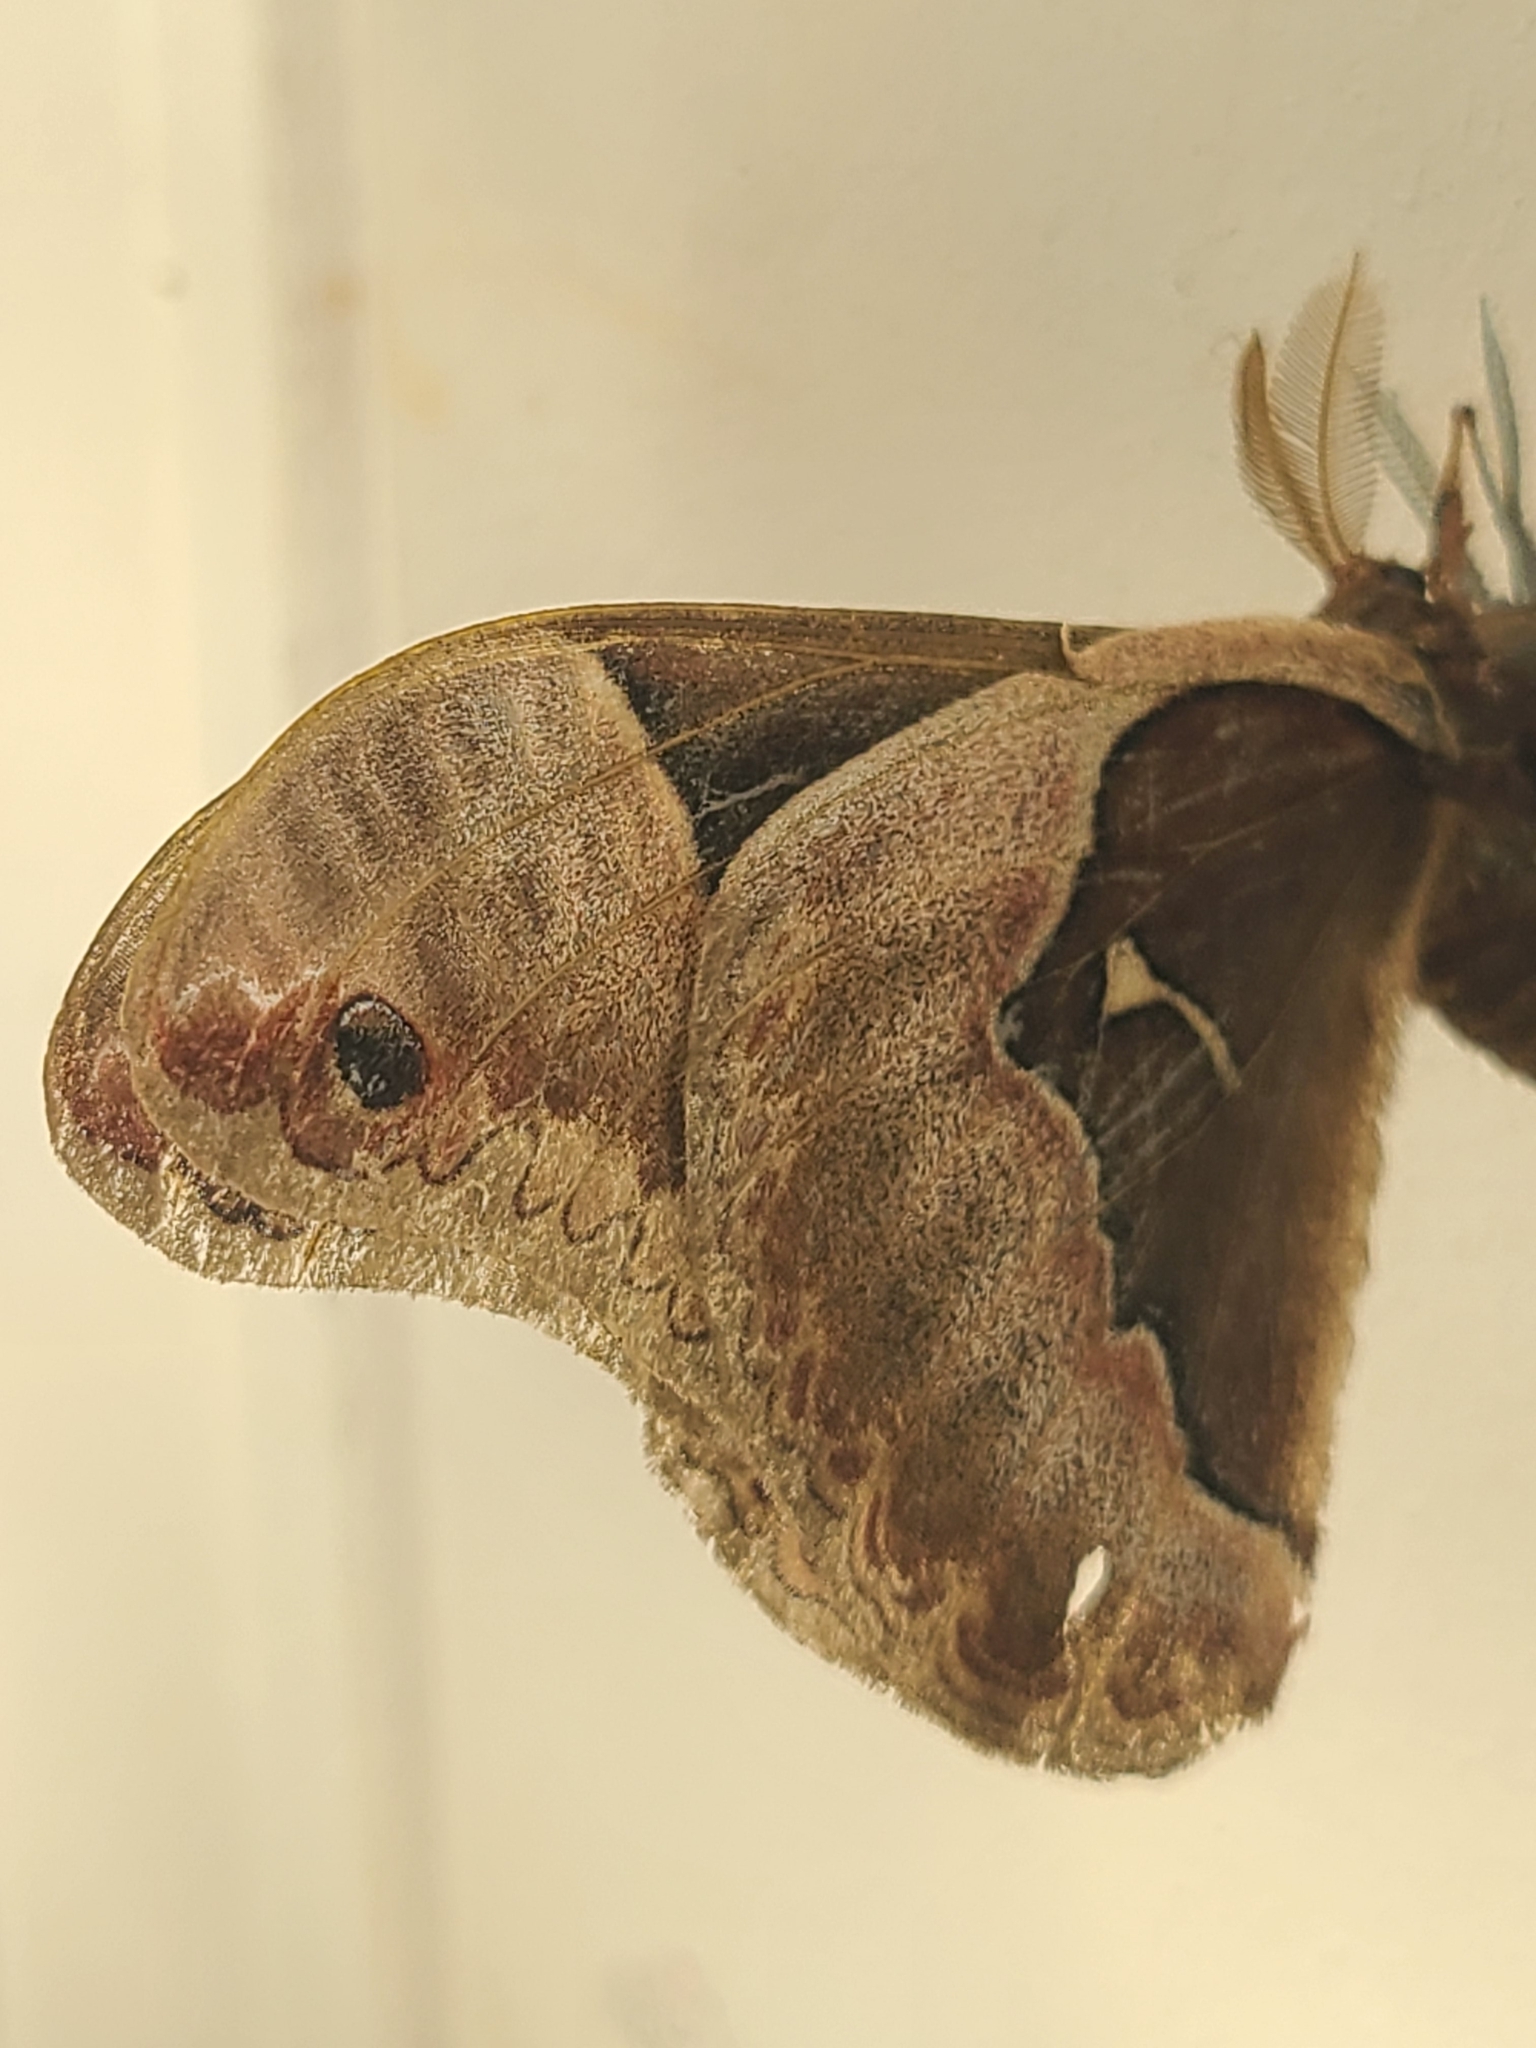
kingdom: Animalia
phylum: Arthropoda
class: Insecta
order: Lepidoptera
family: Saturniidae
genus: Callosamia
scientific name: Callosamia angulifera
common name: Tulip tree silkmoth
